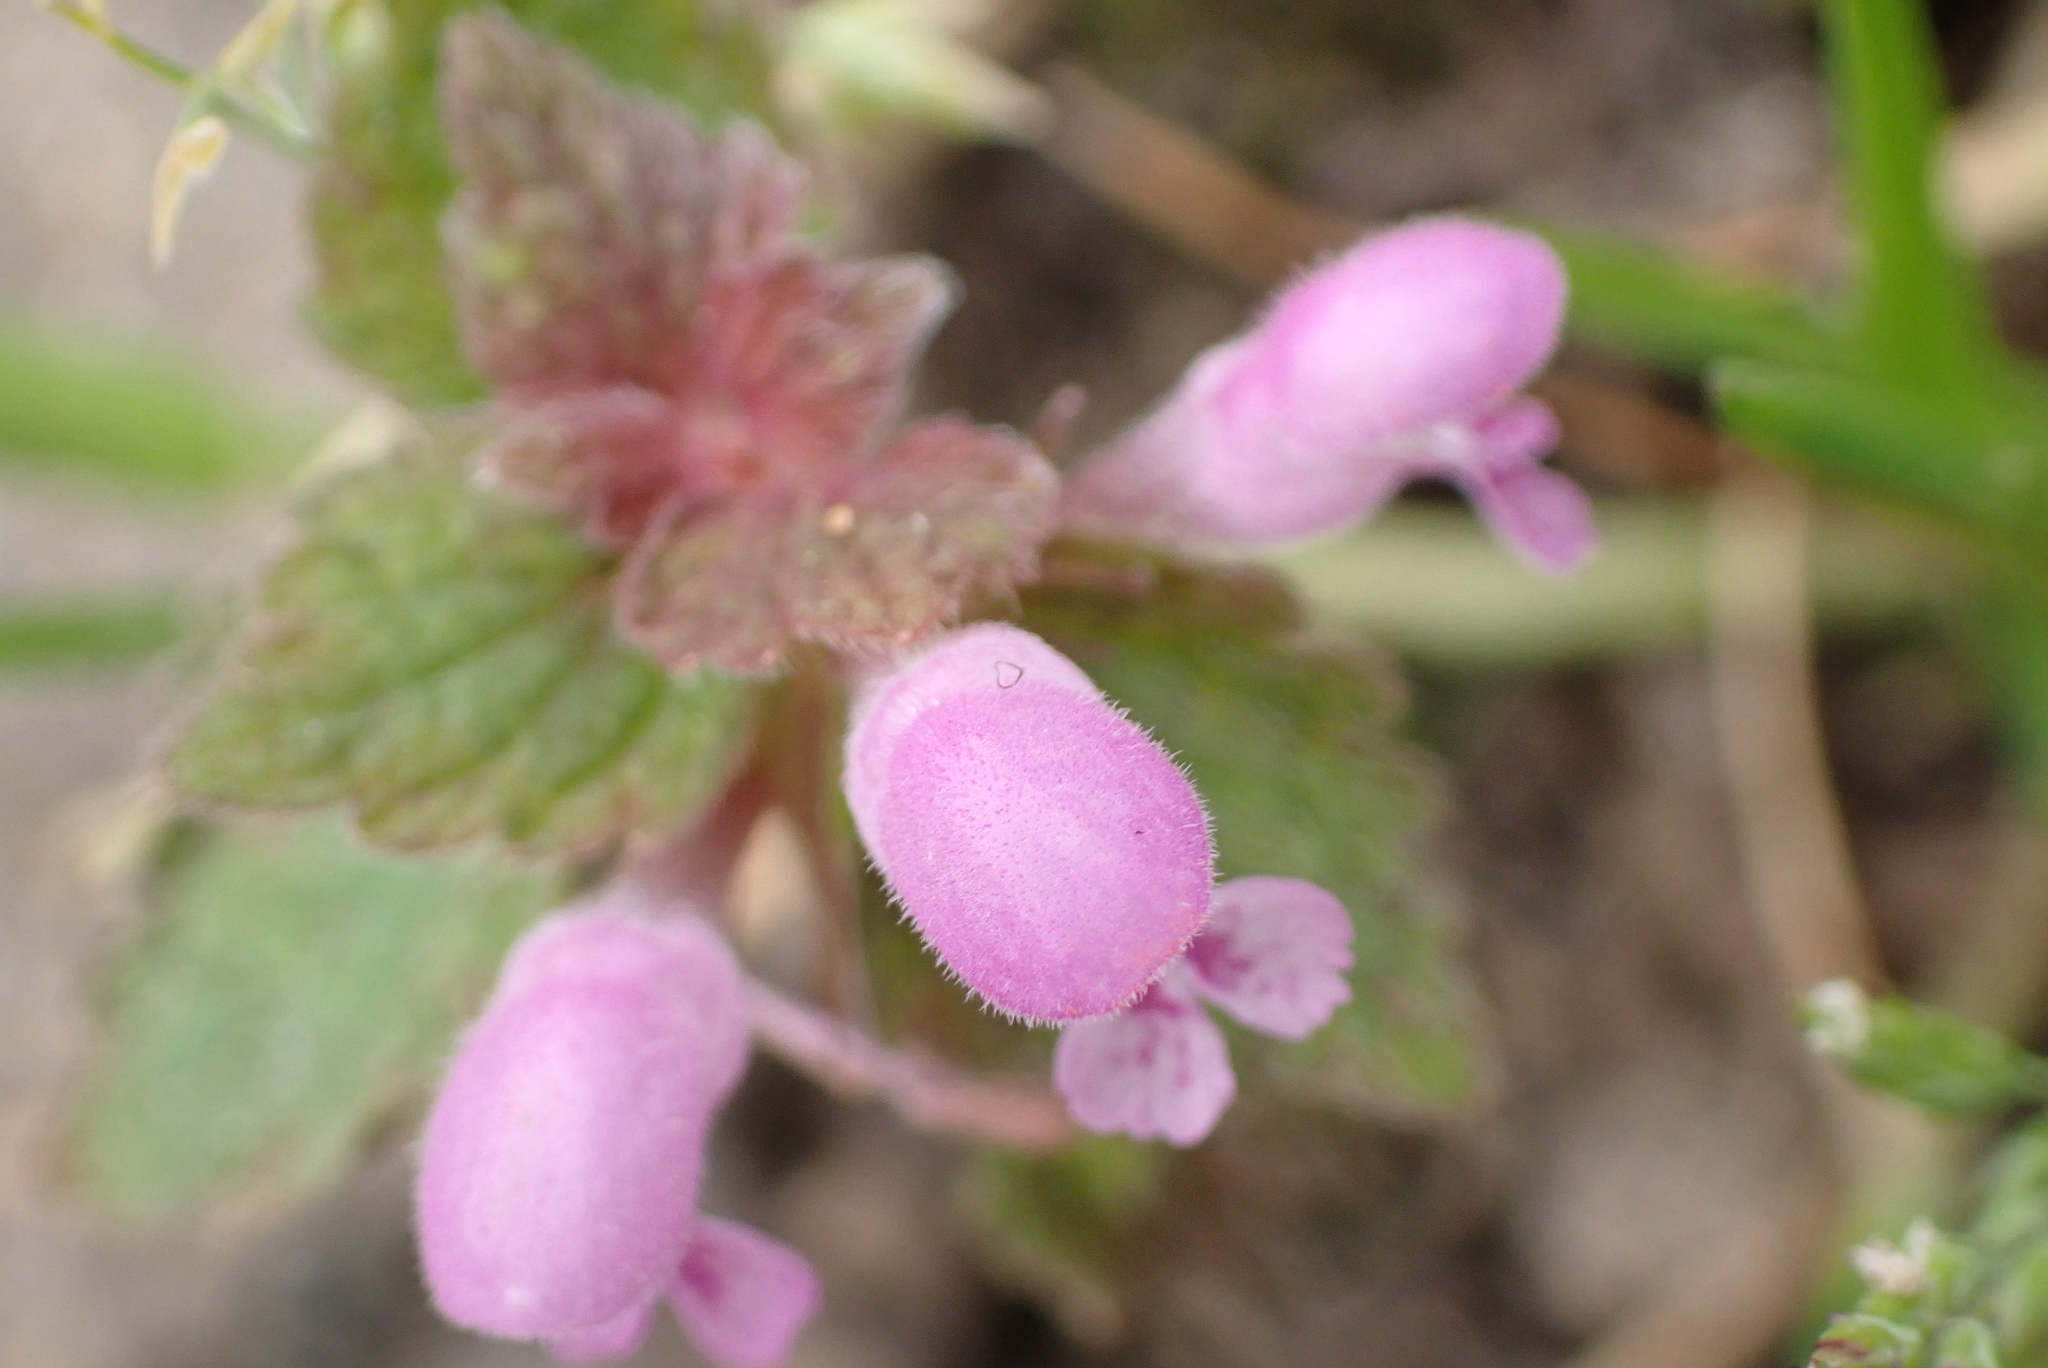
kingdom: Plantae
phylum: Tracheophyta
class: Magnoliopsida
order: Lamiales
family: Lamiaceae
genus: Lamium
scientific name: Lamium purpureum
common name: Red dead-nettle
